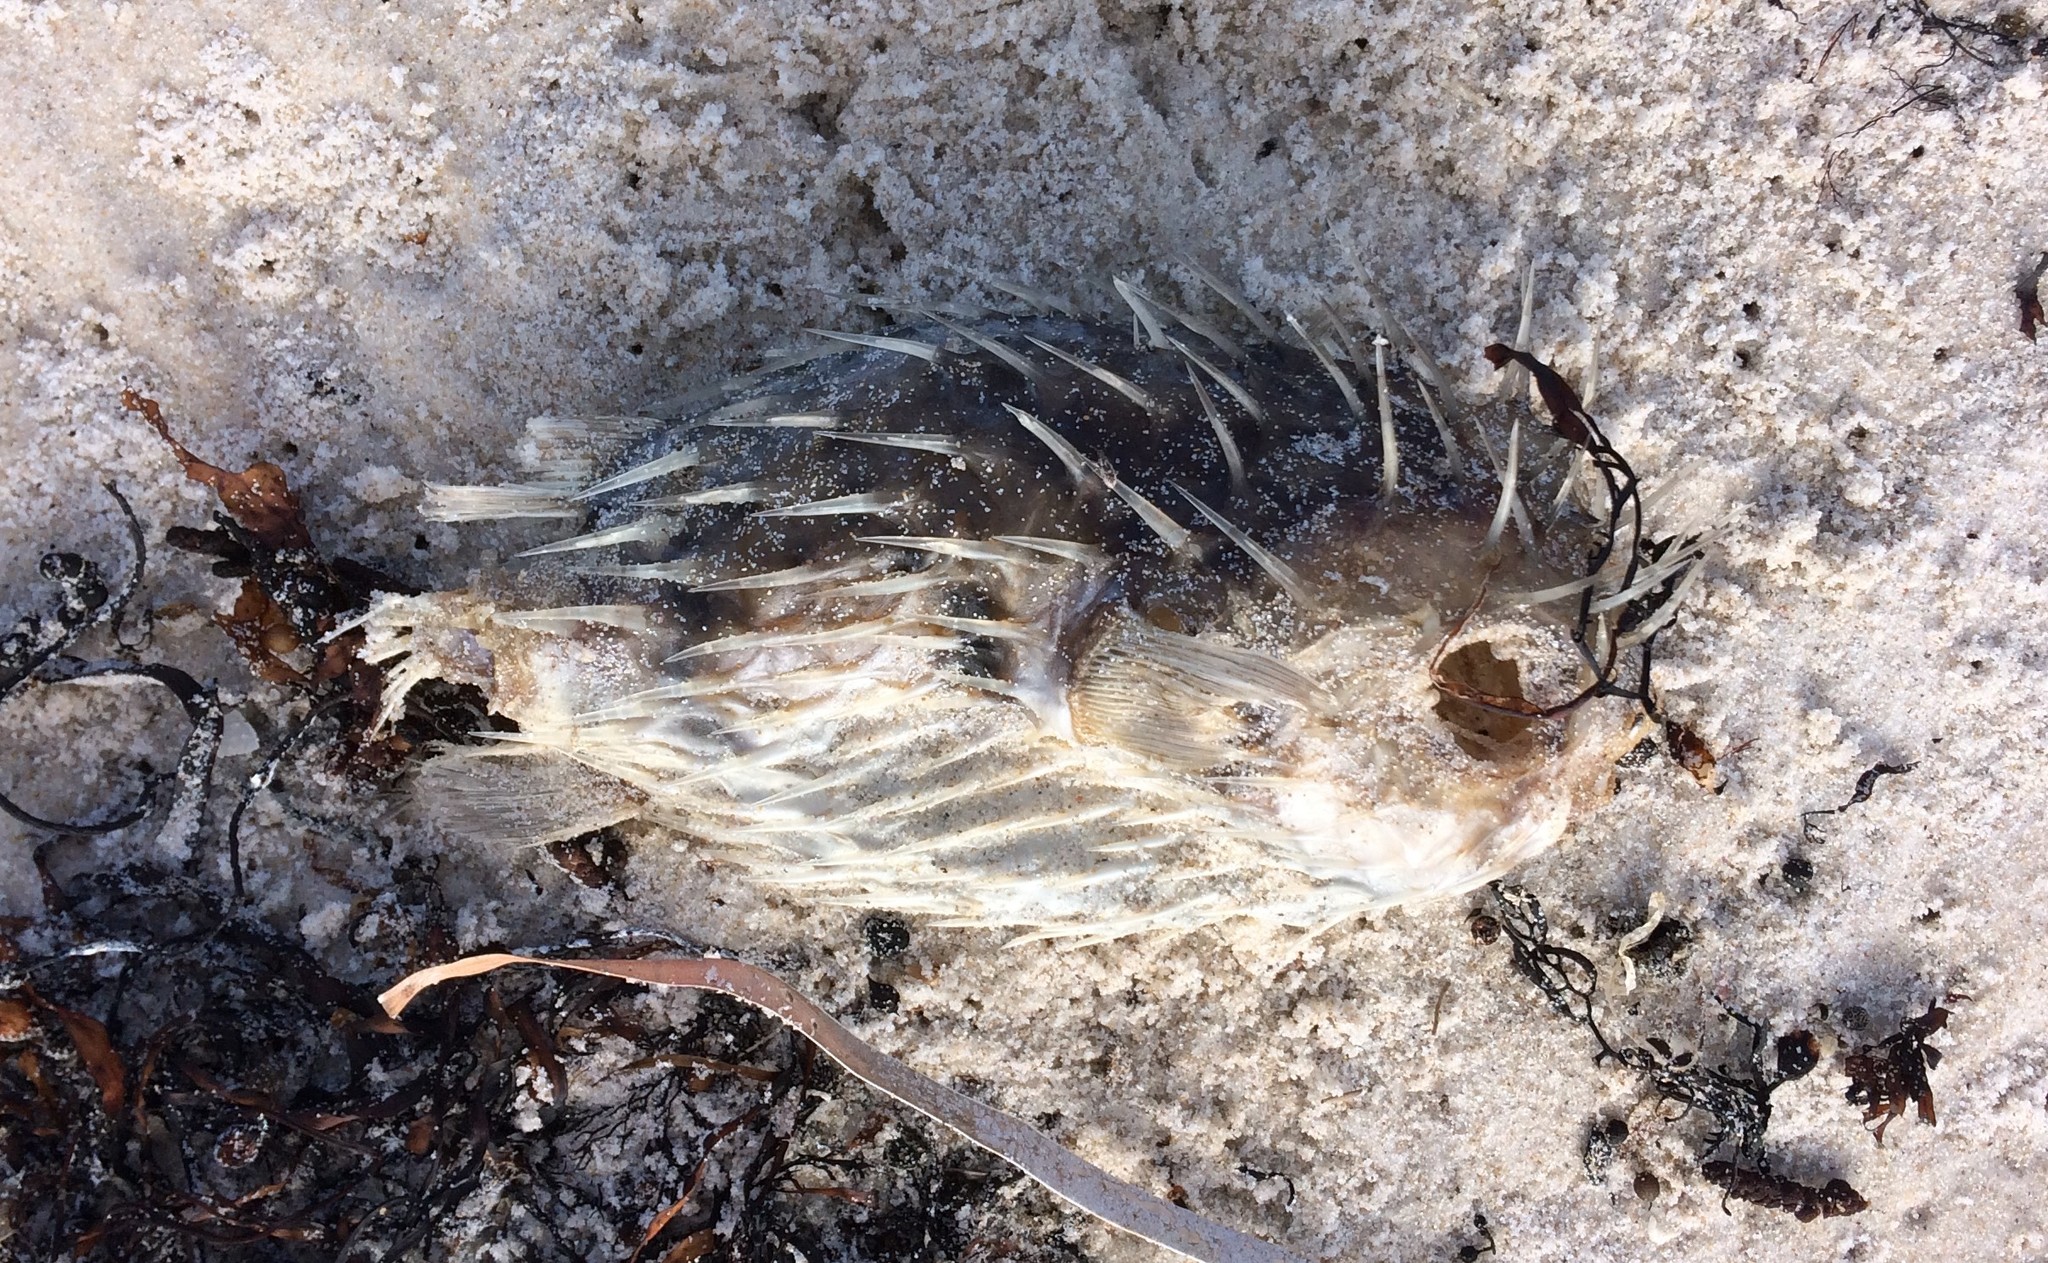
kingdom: Animalia
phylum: Chordata
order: Tetraodontiformes
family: Diodontidae
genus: Diodon
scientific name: Diodon nicthemerus
